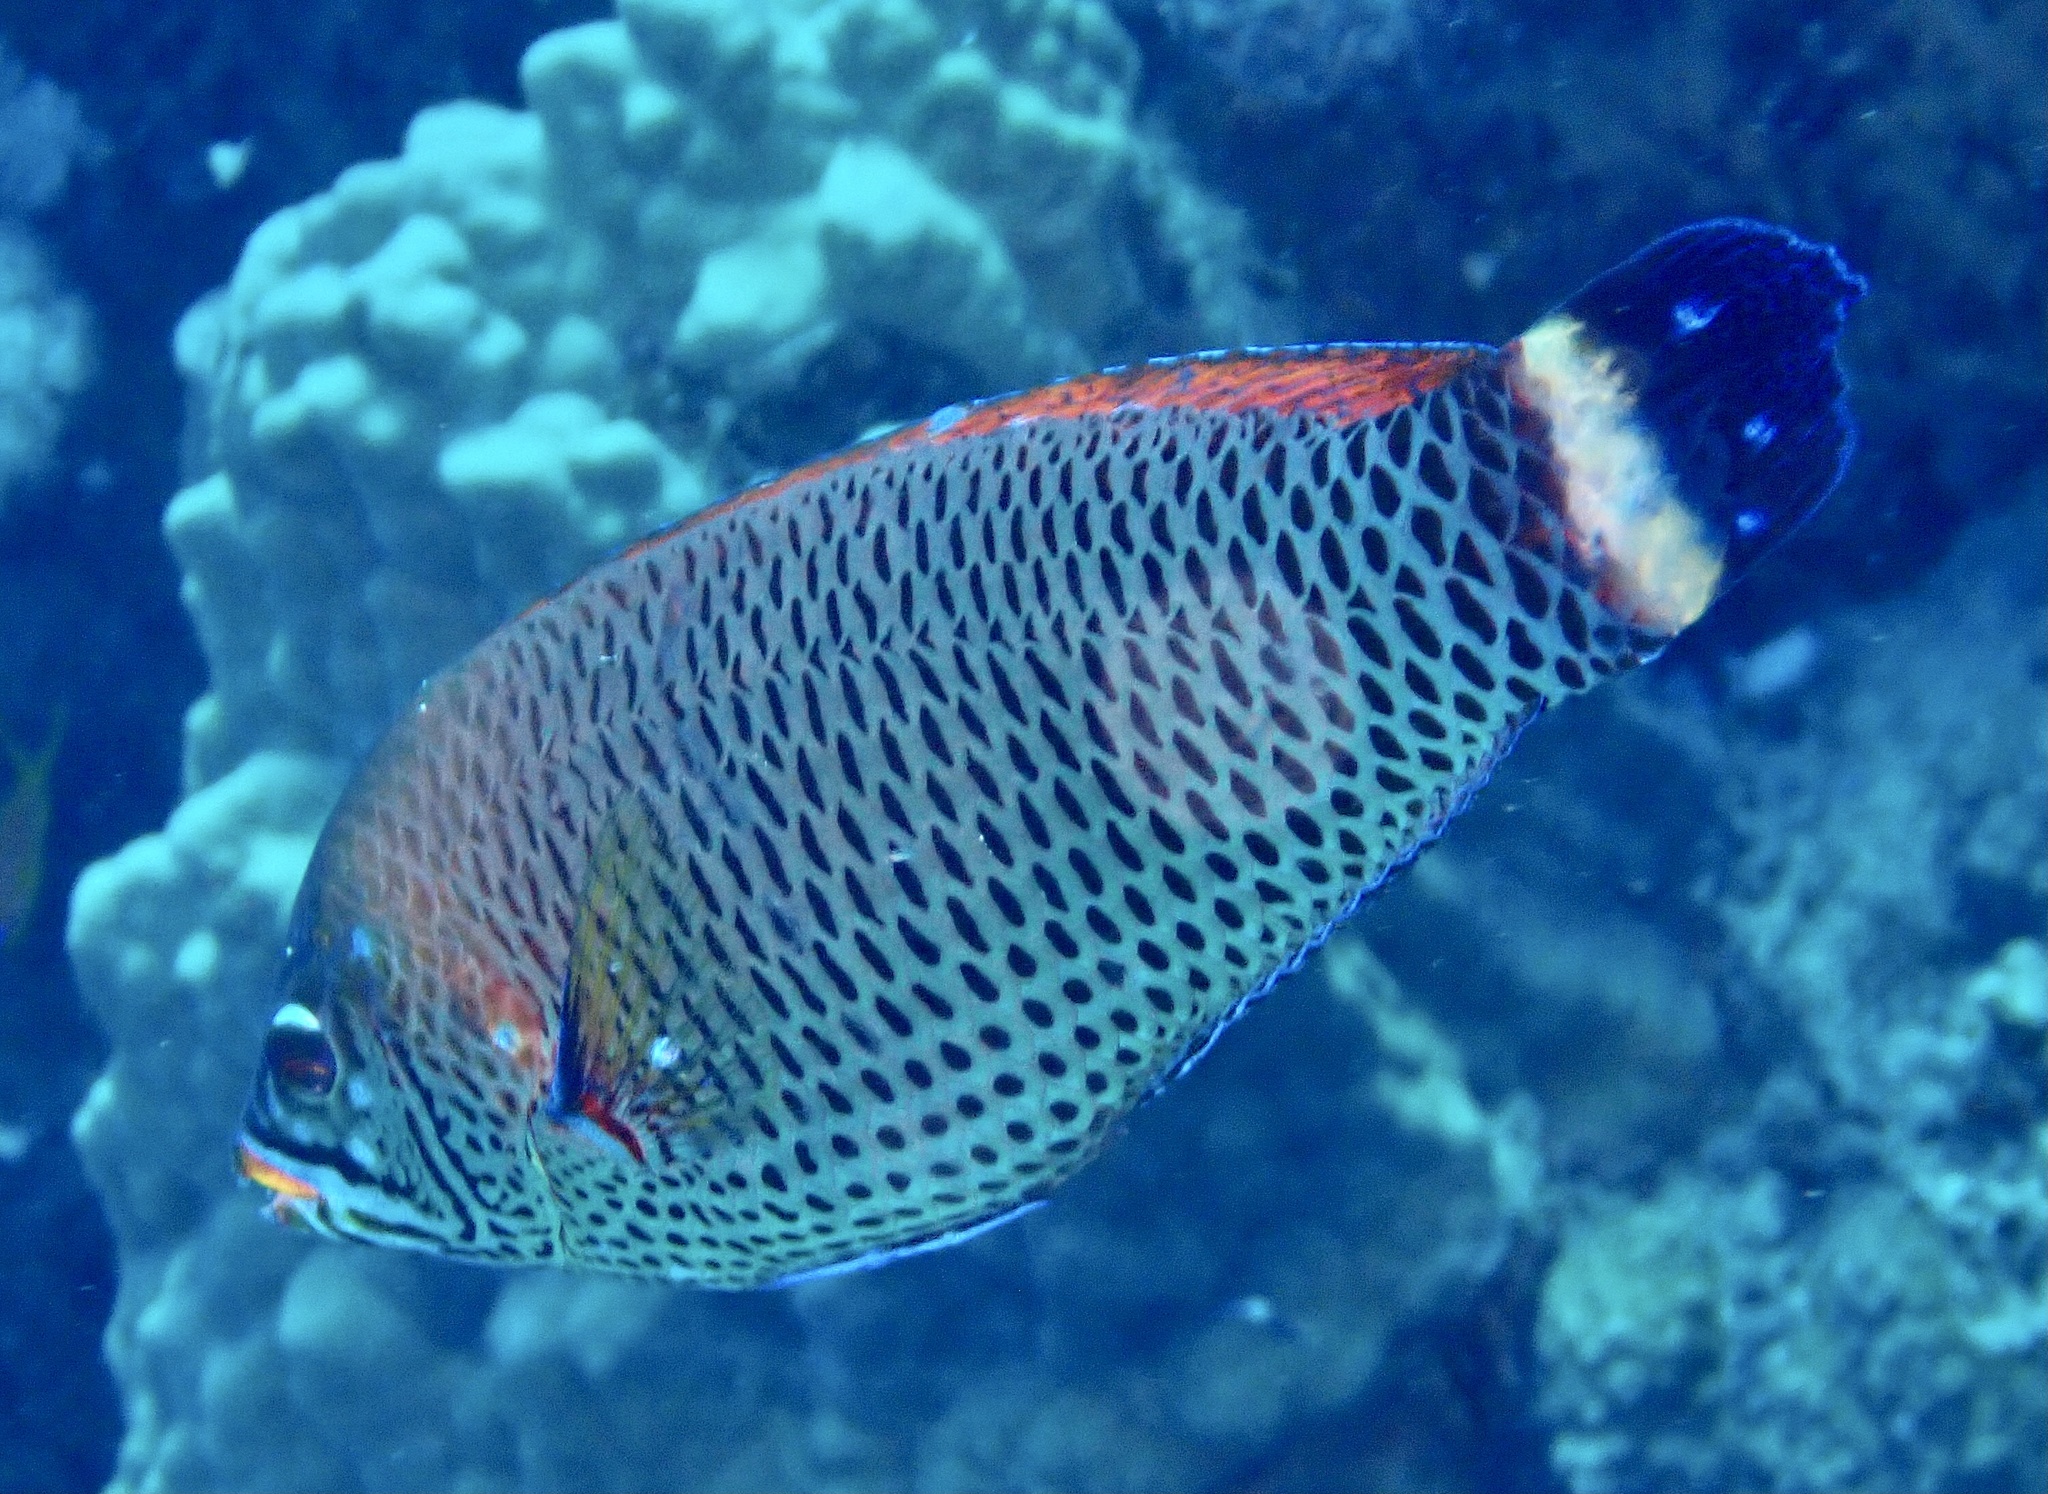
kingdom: Animalia
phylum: Chordata
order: Perciformes
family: Labridae
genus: Pseudodax
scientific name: Pseudodax moluccanus
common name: Chiseltooth wrasse
